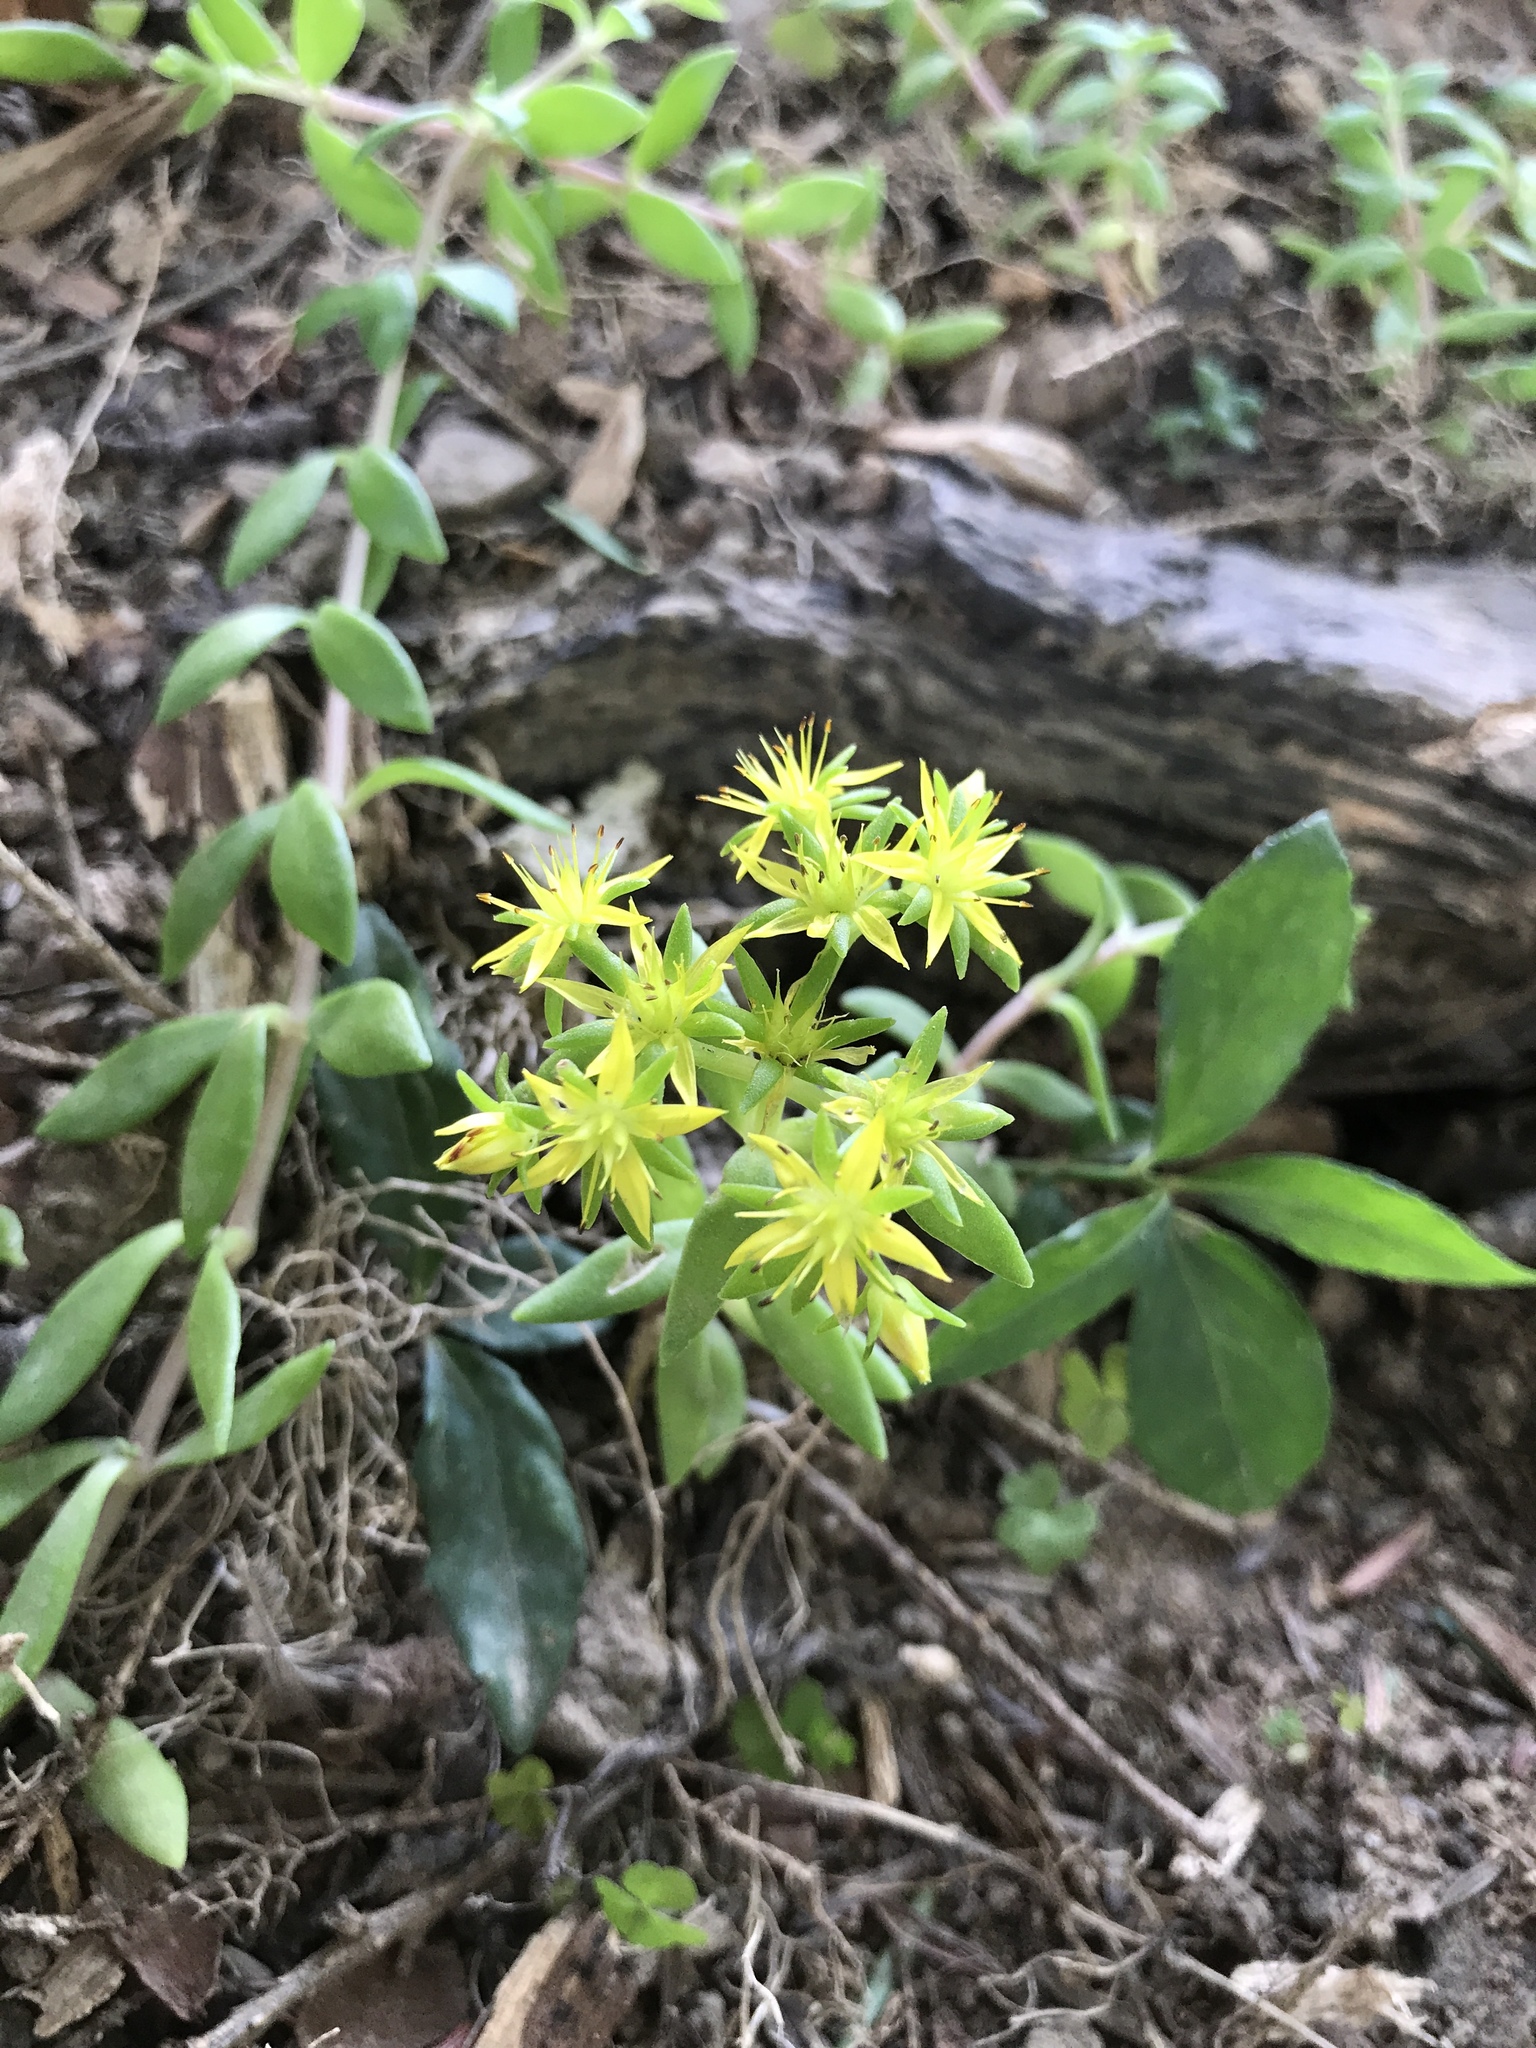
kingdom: Plantae
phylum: Tracheophyta
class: Magnoliopsida
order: Saxifragales
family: Crassulaceae
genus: Sedum
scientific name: Sedum sarmentosum
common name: Stringy stonecrop
